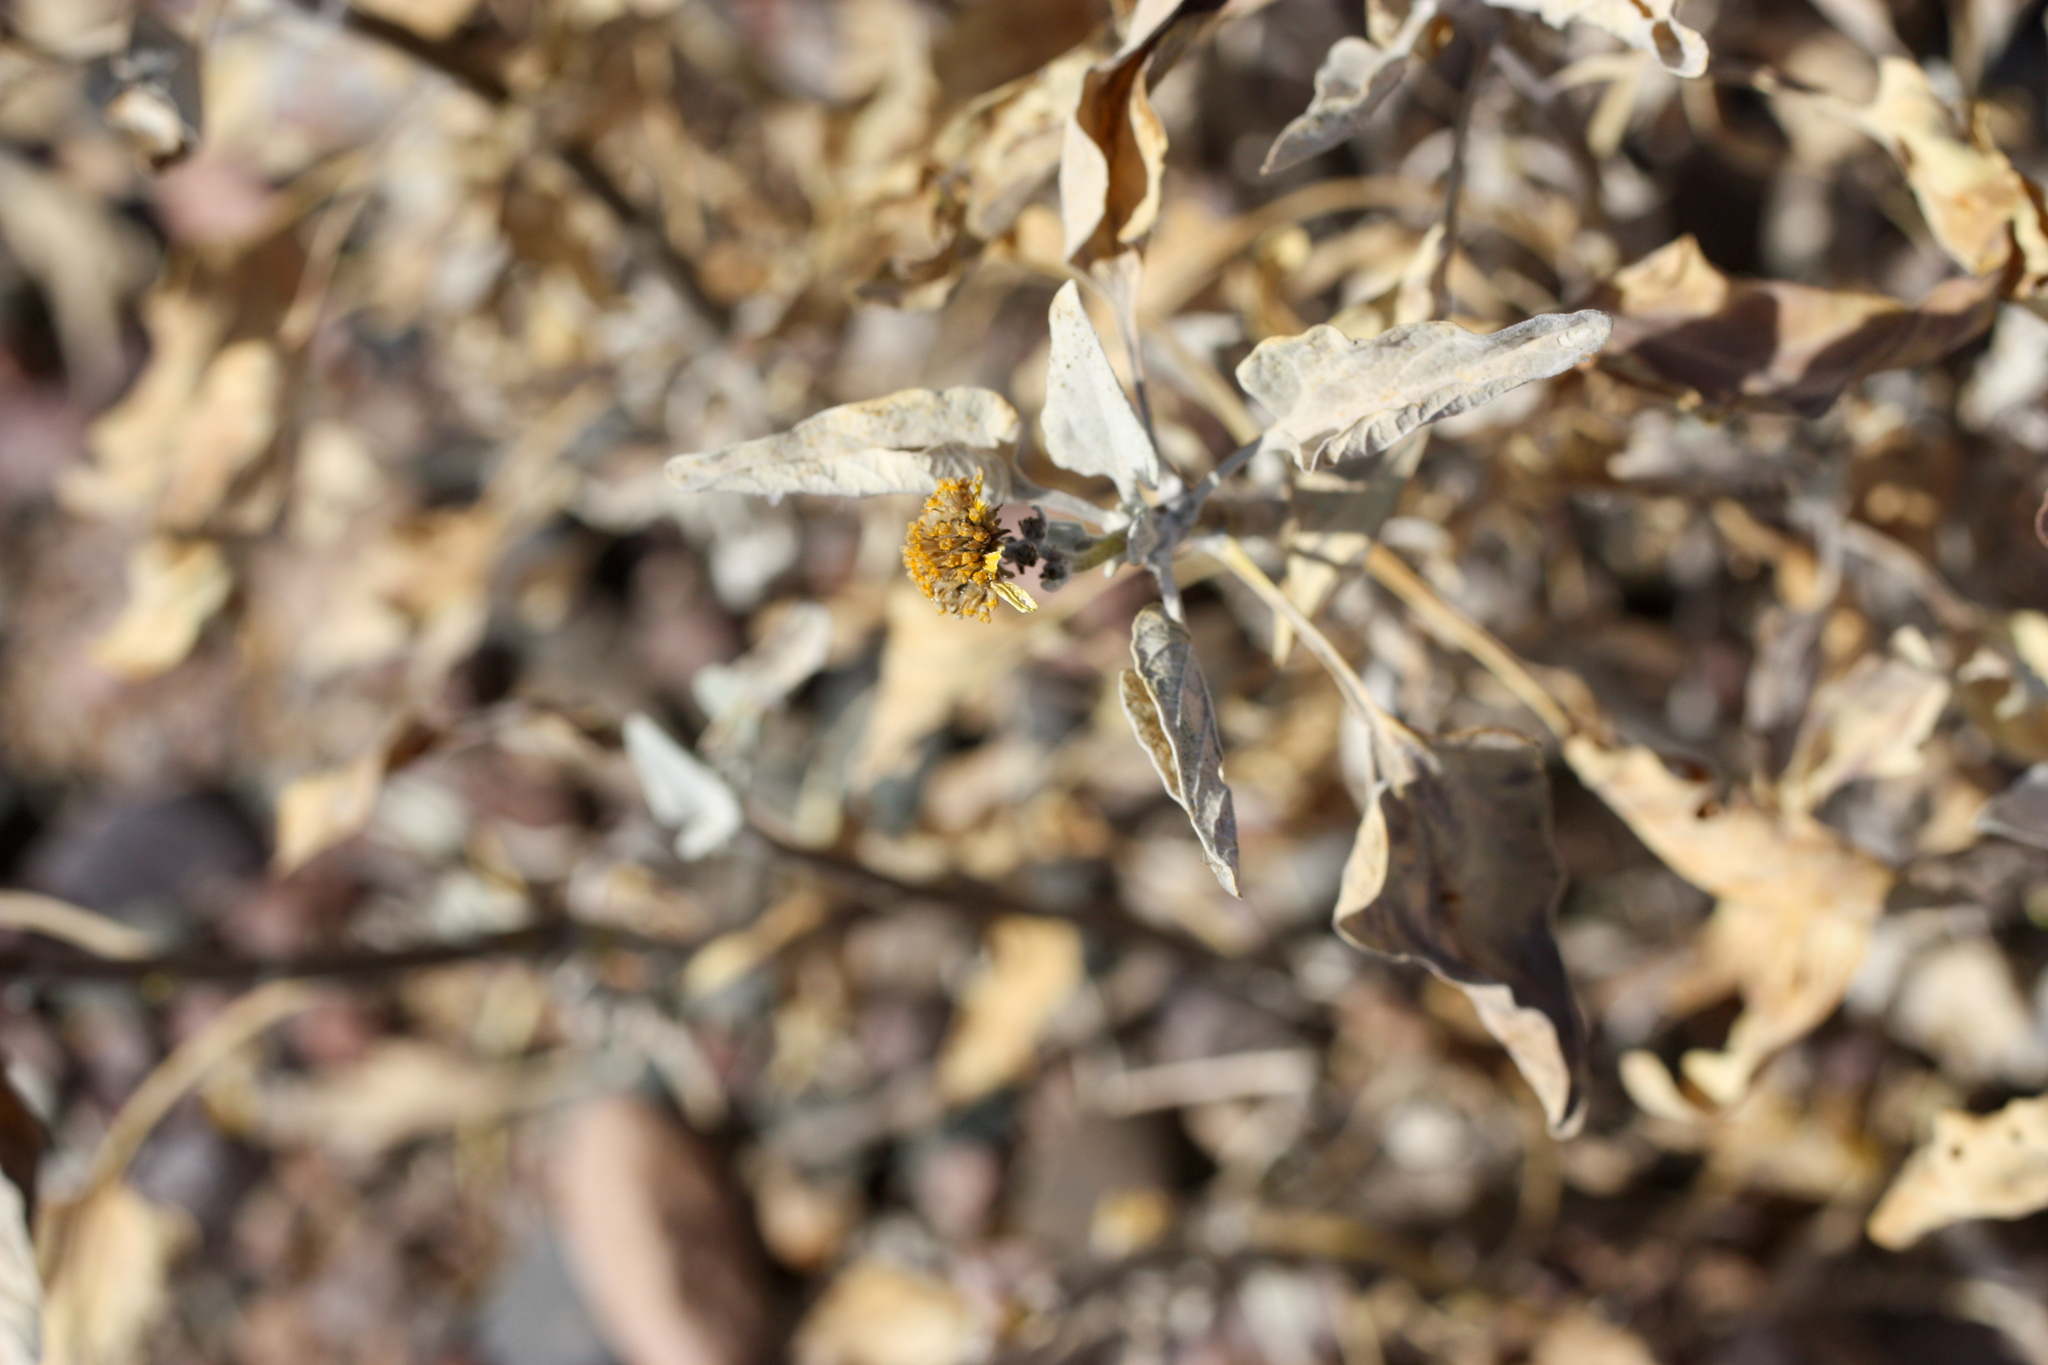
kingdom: Plantae
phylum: Tracheophyta
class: Magnoliopsida
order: Asterales
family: Asteraceae
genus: Encelia
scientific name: Encelia farinosa
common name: Brittlebush
